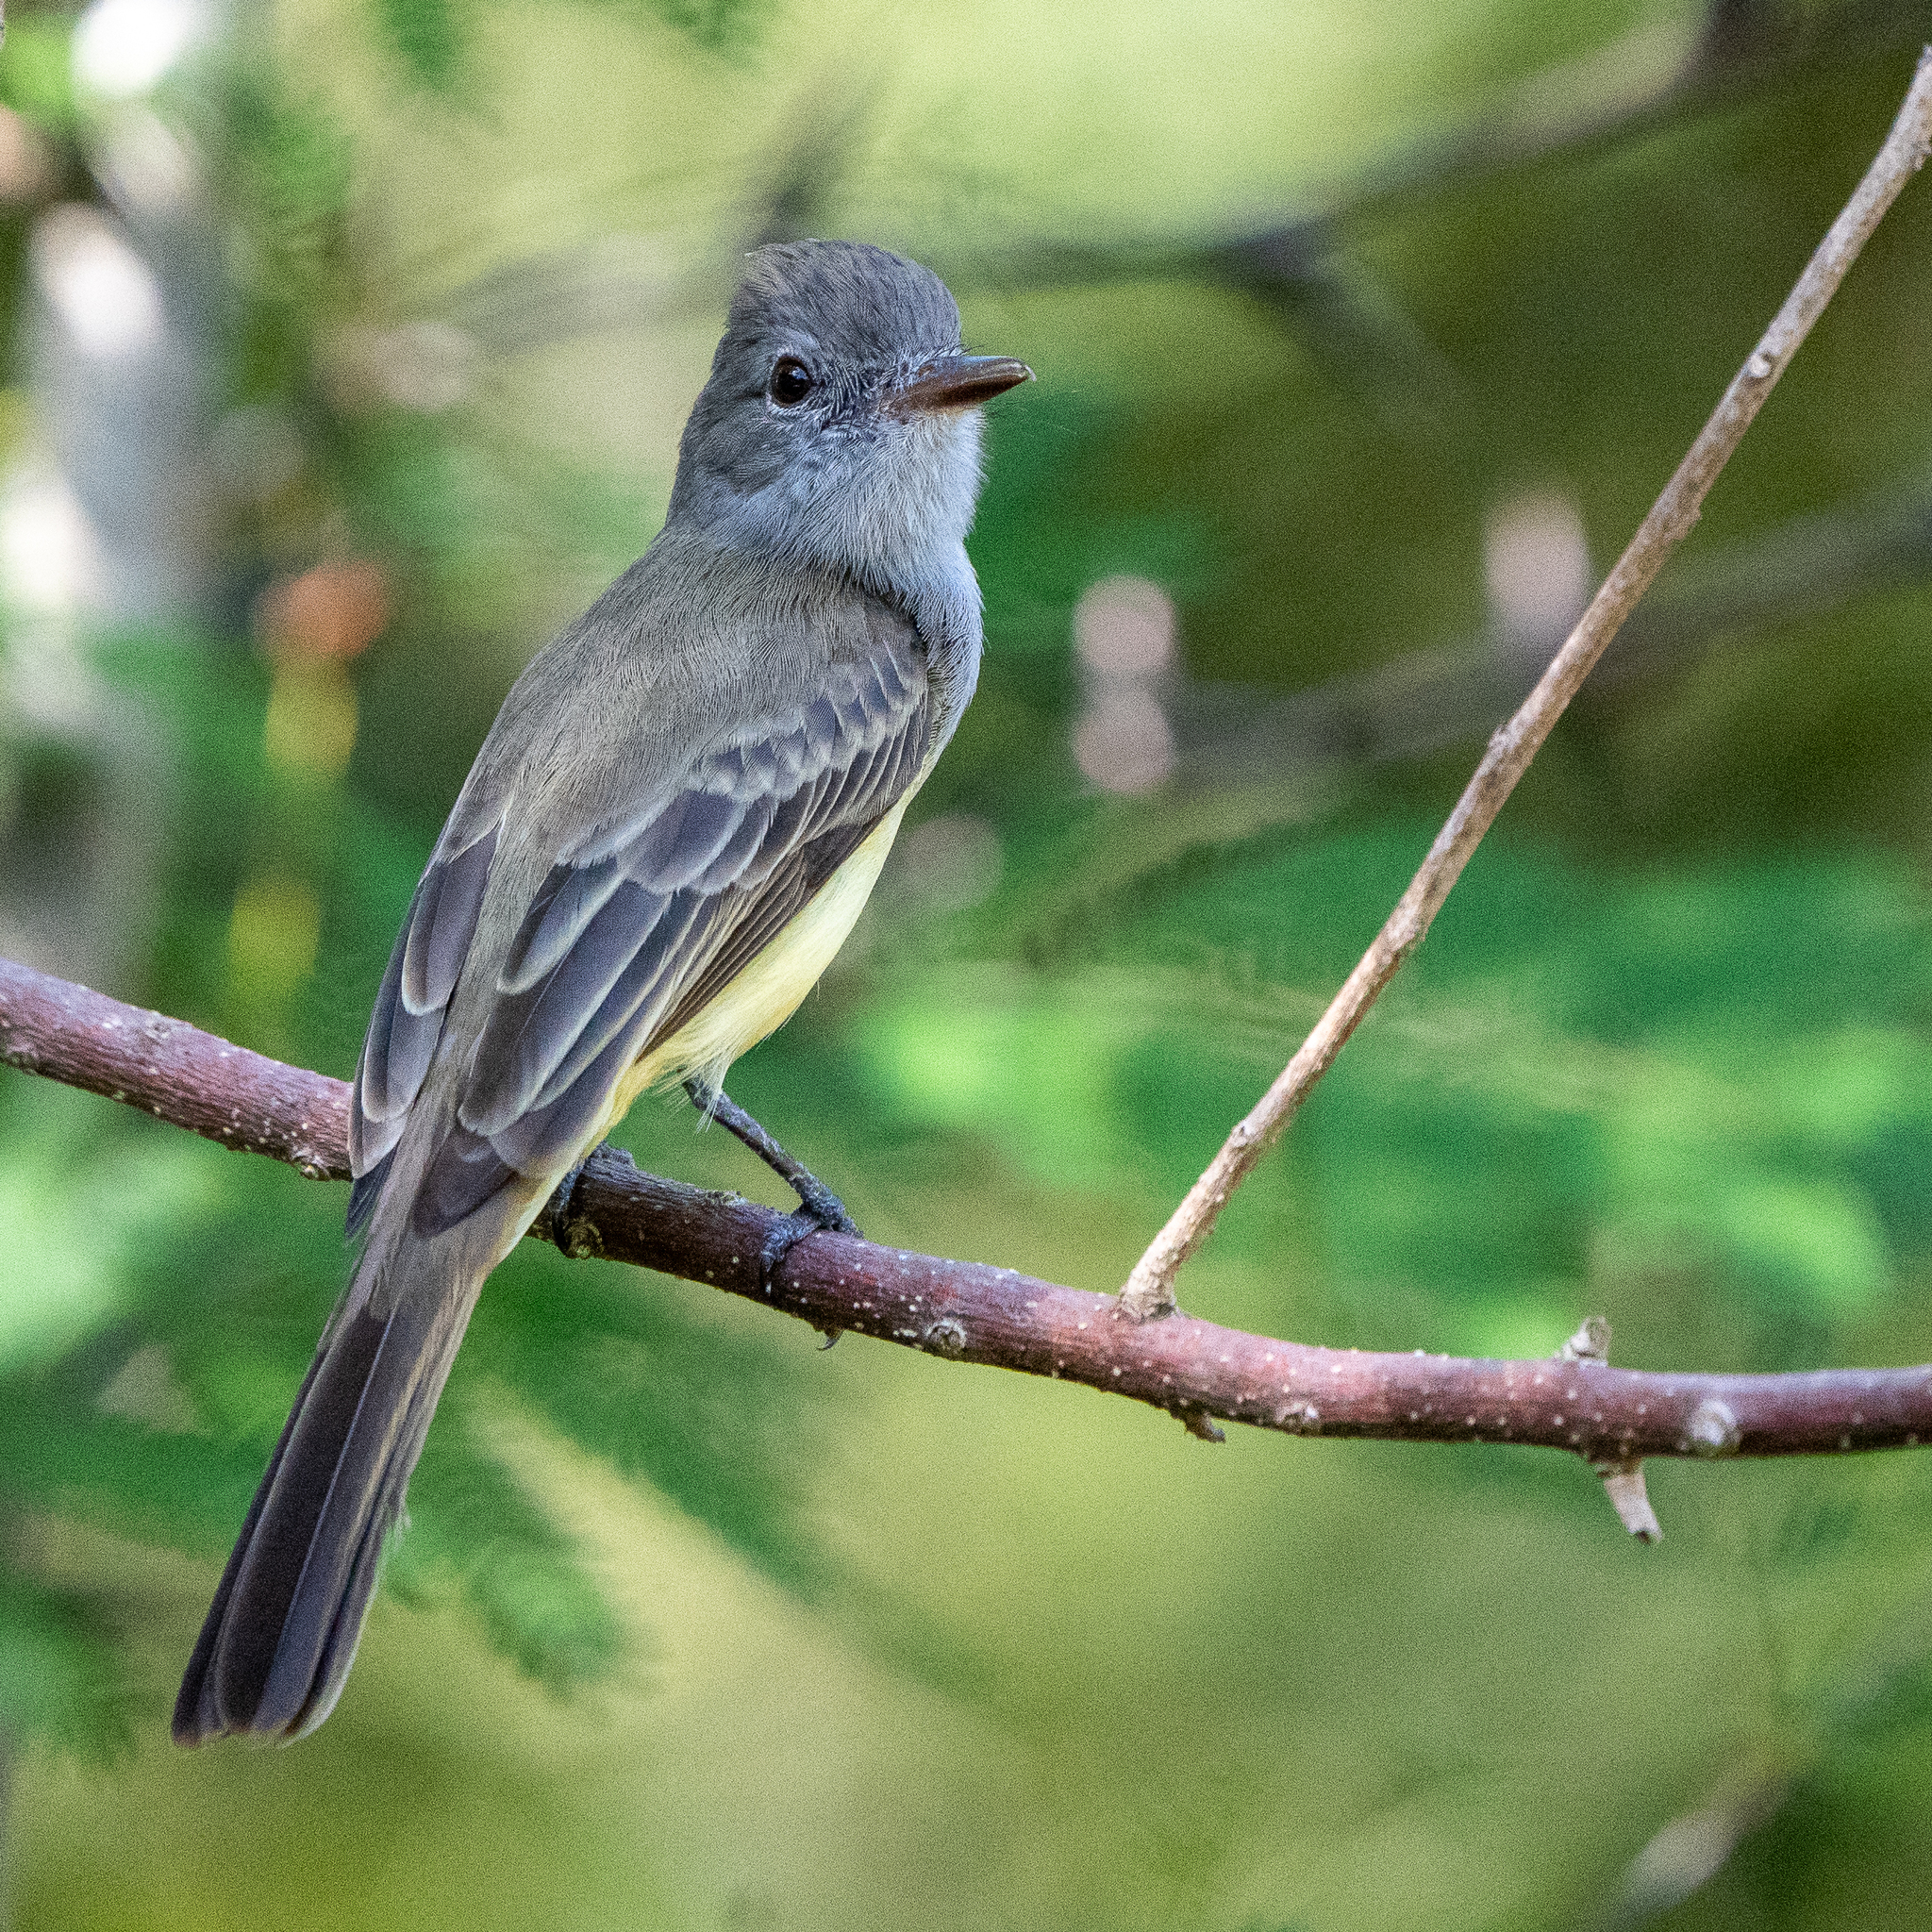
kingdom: Animalia
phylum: Chordata
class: Aves
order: Passeriformes
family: Tyrannidae
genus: Myiarchus
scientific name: Myiarchus panamensis
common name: Panama flycatcher
